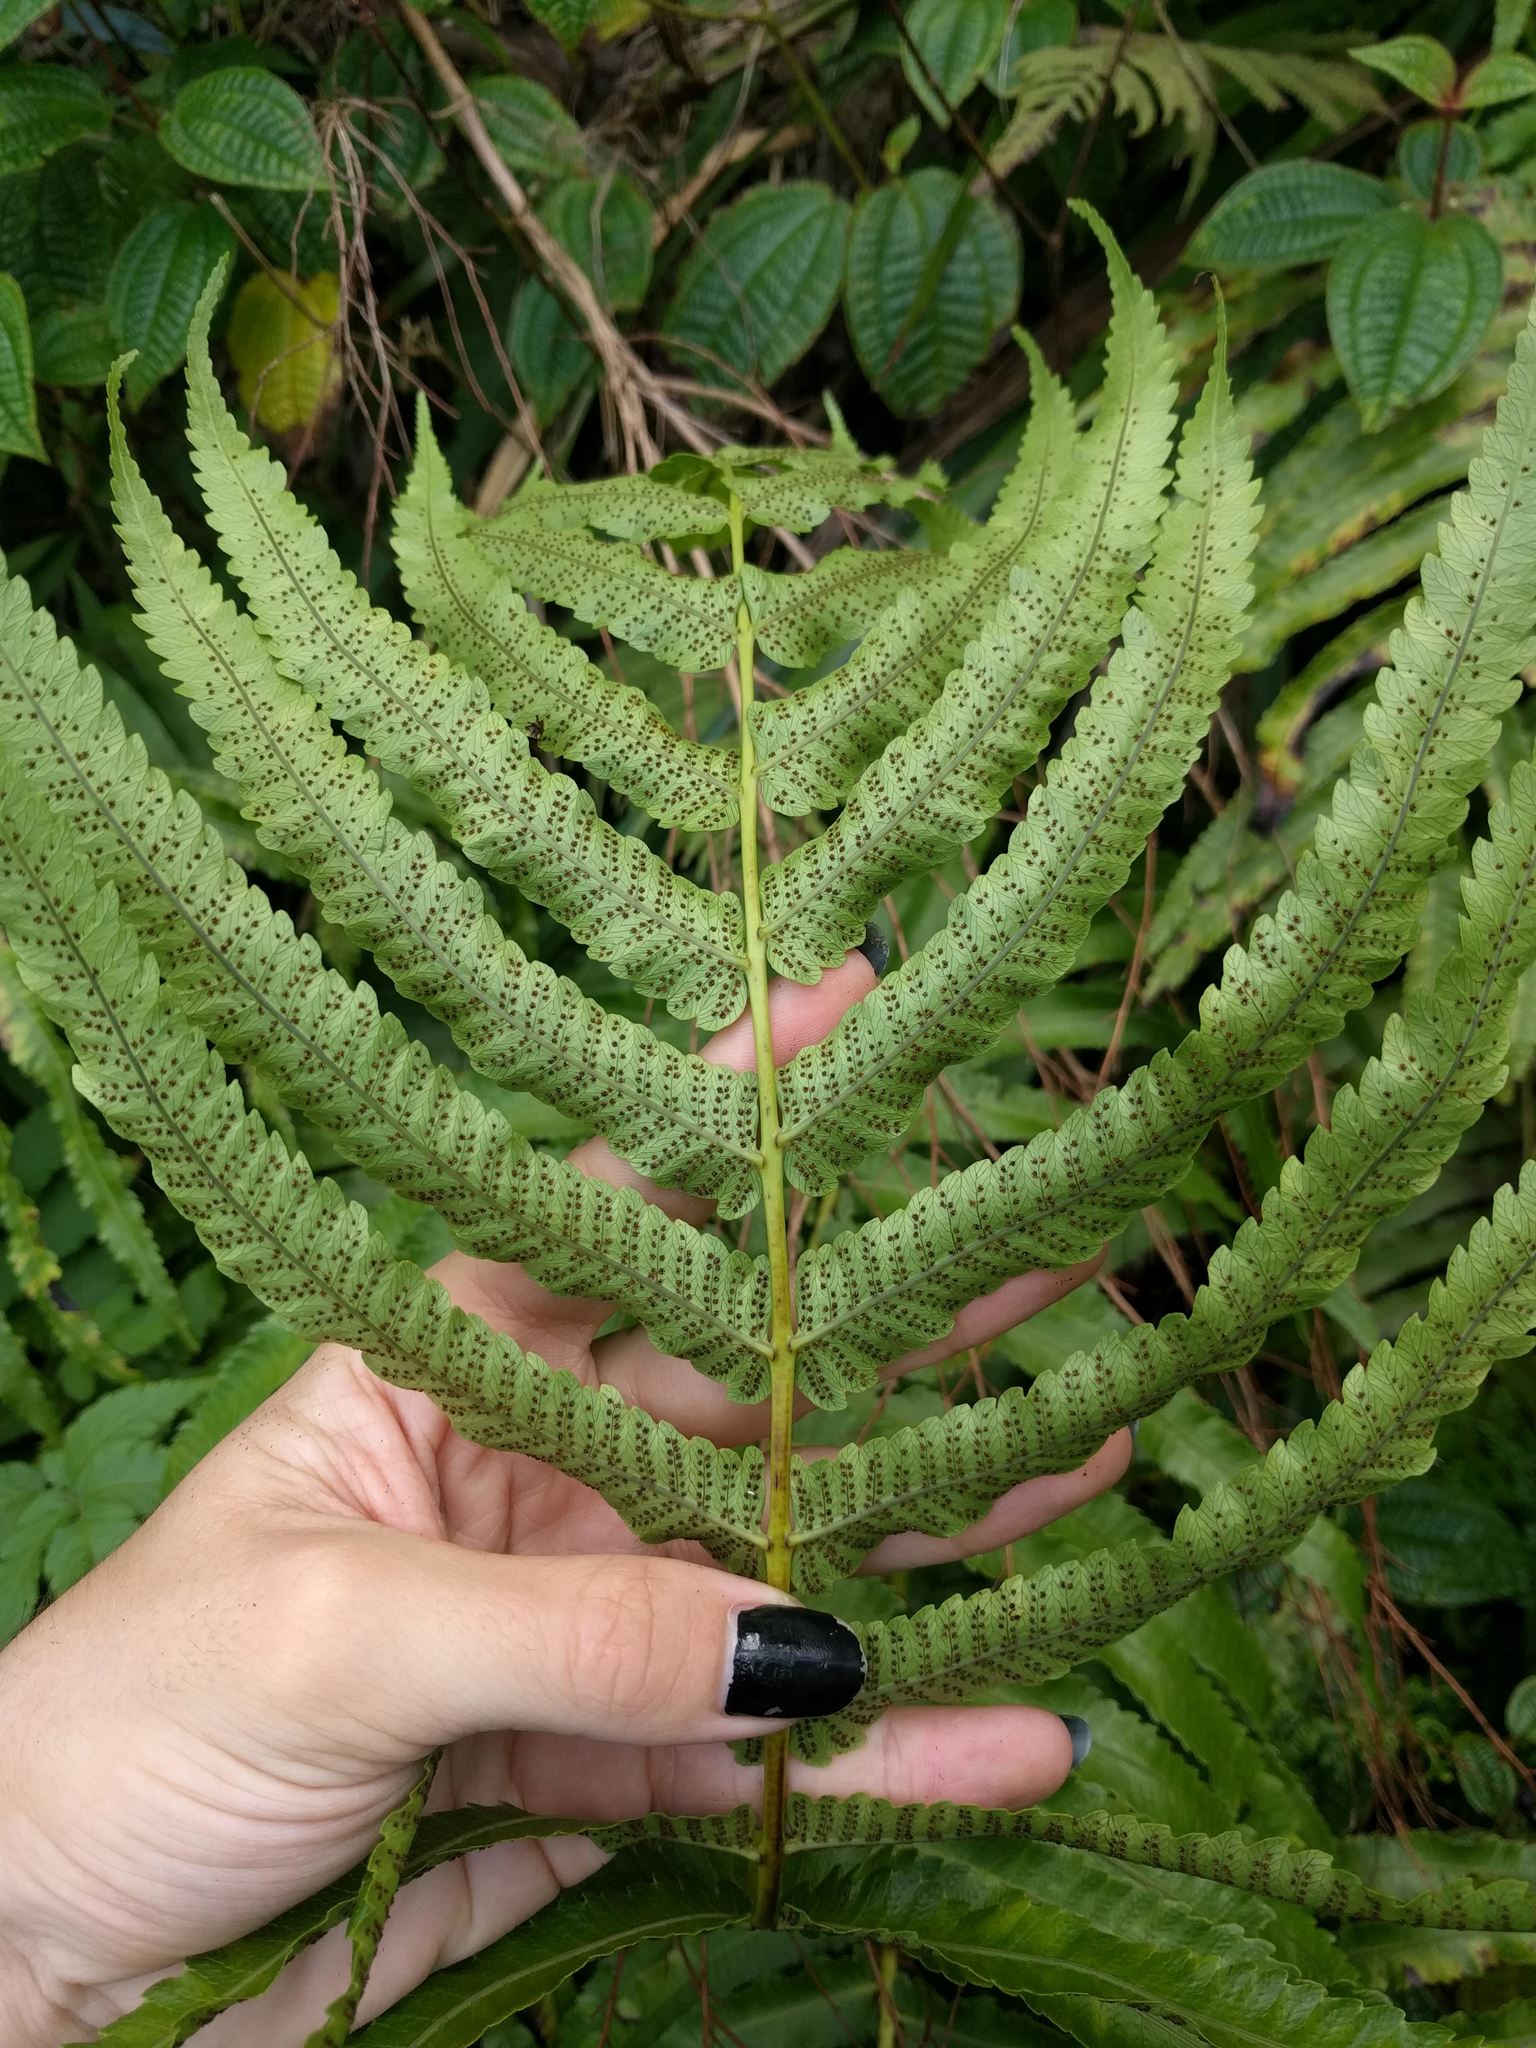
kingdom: Plantae
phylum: Tracheophyta
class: Polypodiopsida
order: Polypodiales
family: Thelypteridaceae
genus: Menisciopsis
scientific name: Menisciopsis cyatheoides
